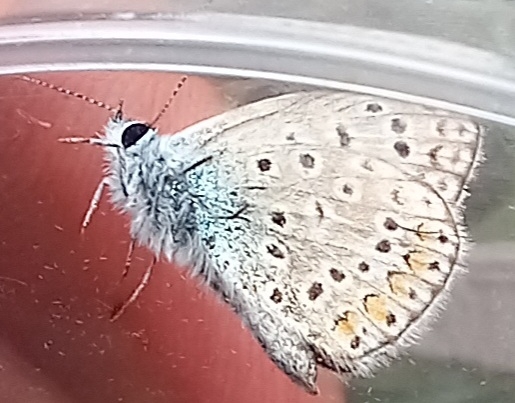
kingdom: Animalia
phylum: Arthropoda
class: Insecta
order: Lepidoptera
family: Lycaenidae
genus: Polyommatus
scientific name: Polyommatus icarus
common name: Common blue
